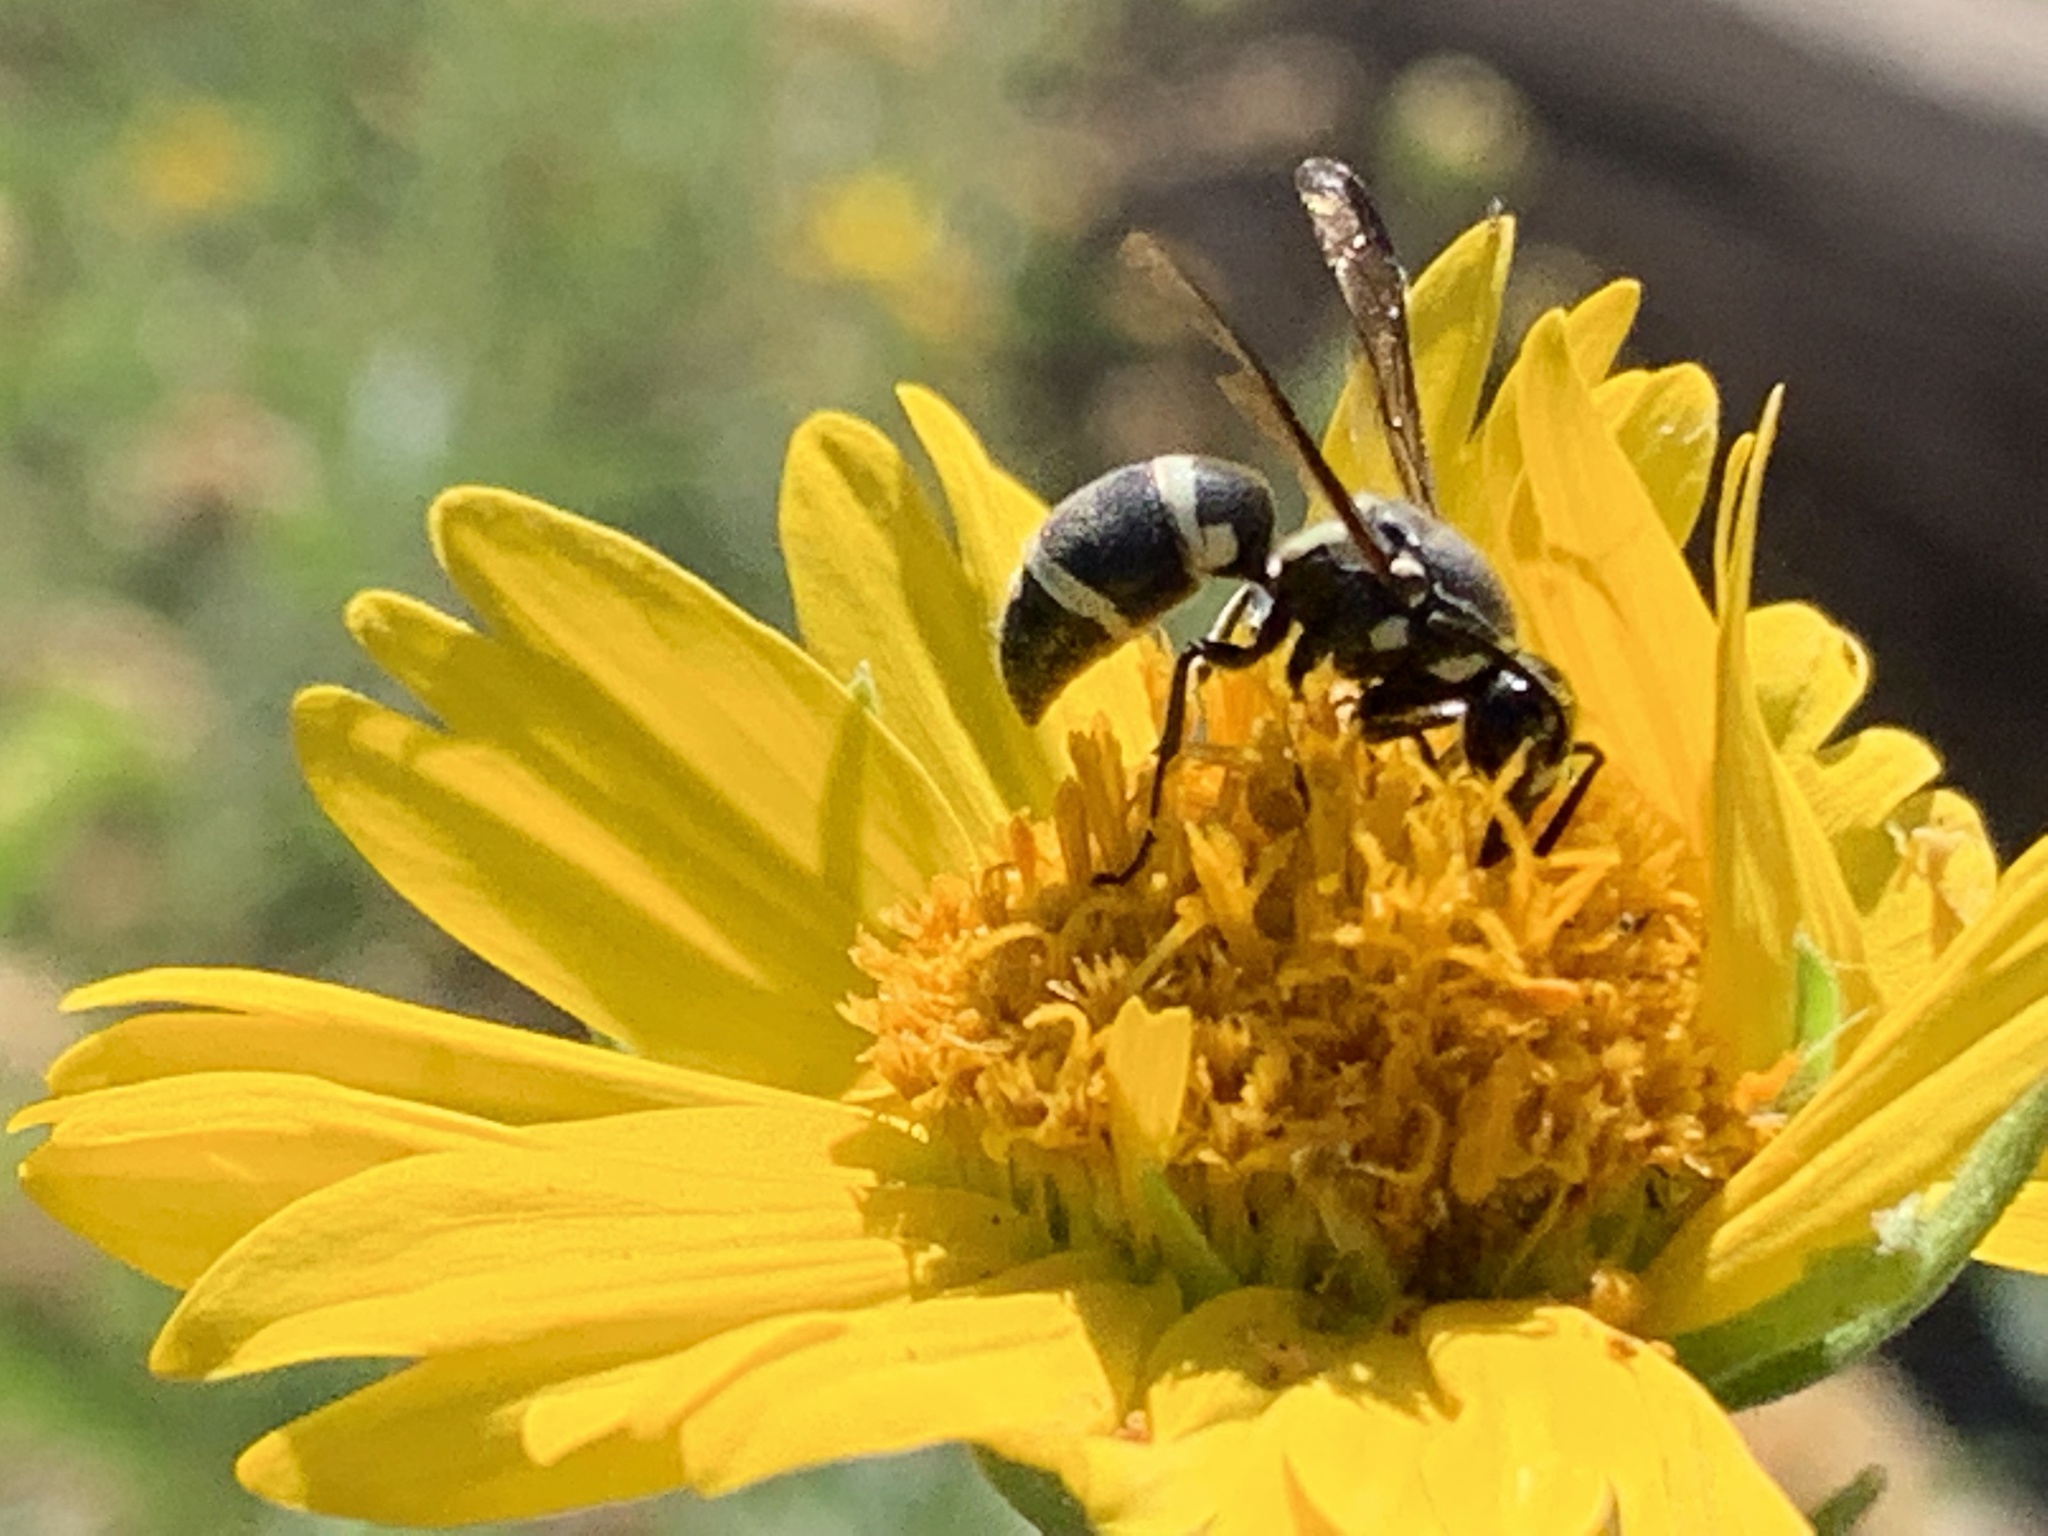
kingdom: Animalia
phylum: Arthropoda
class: Insecta
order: Hymenoptera
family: Eumenidae
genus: Pachodynerus
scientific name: Pachodynerus californicus
